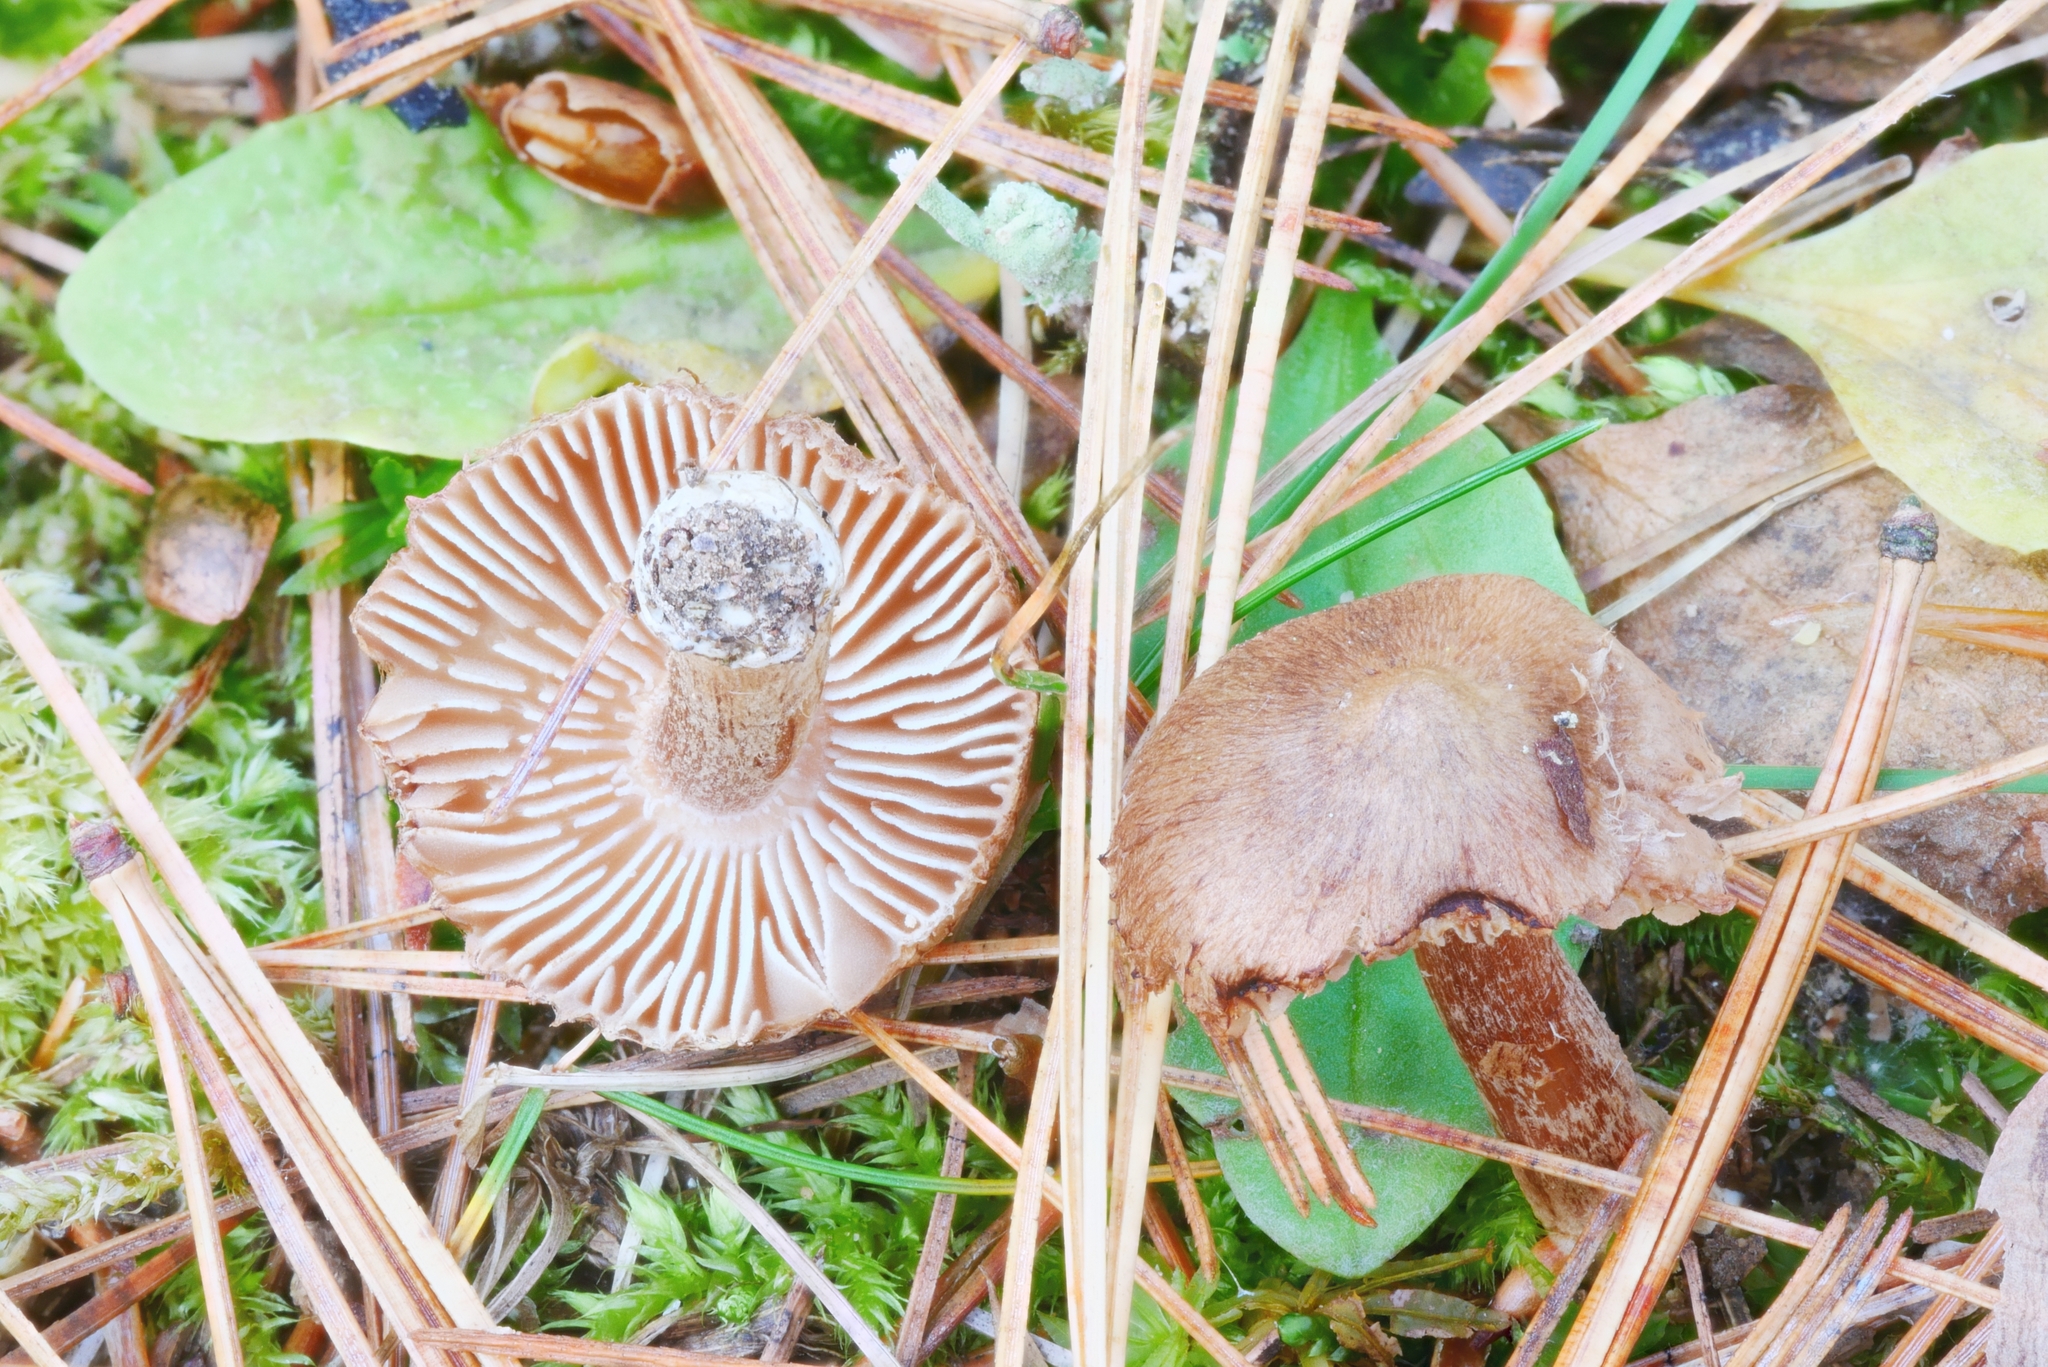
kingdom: Fungi
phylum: Basidiomycota
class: Agaricomycetes
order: Agaricales
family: Inocybaceae
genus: Inocybe
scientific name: Inocybe porcorum
